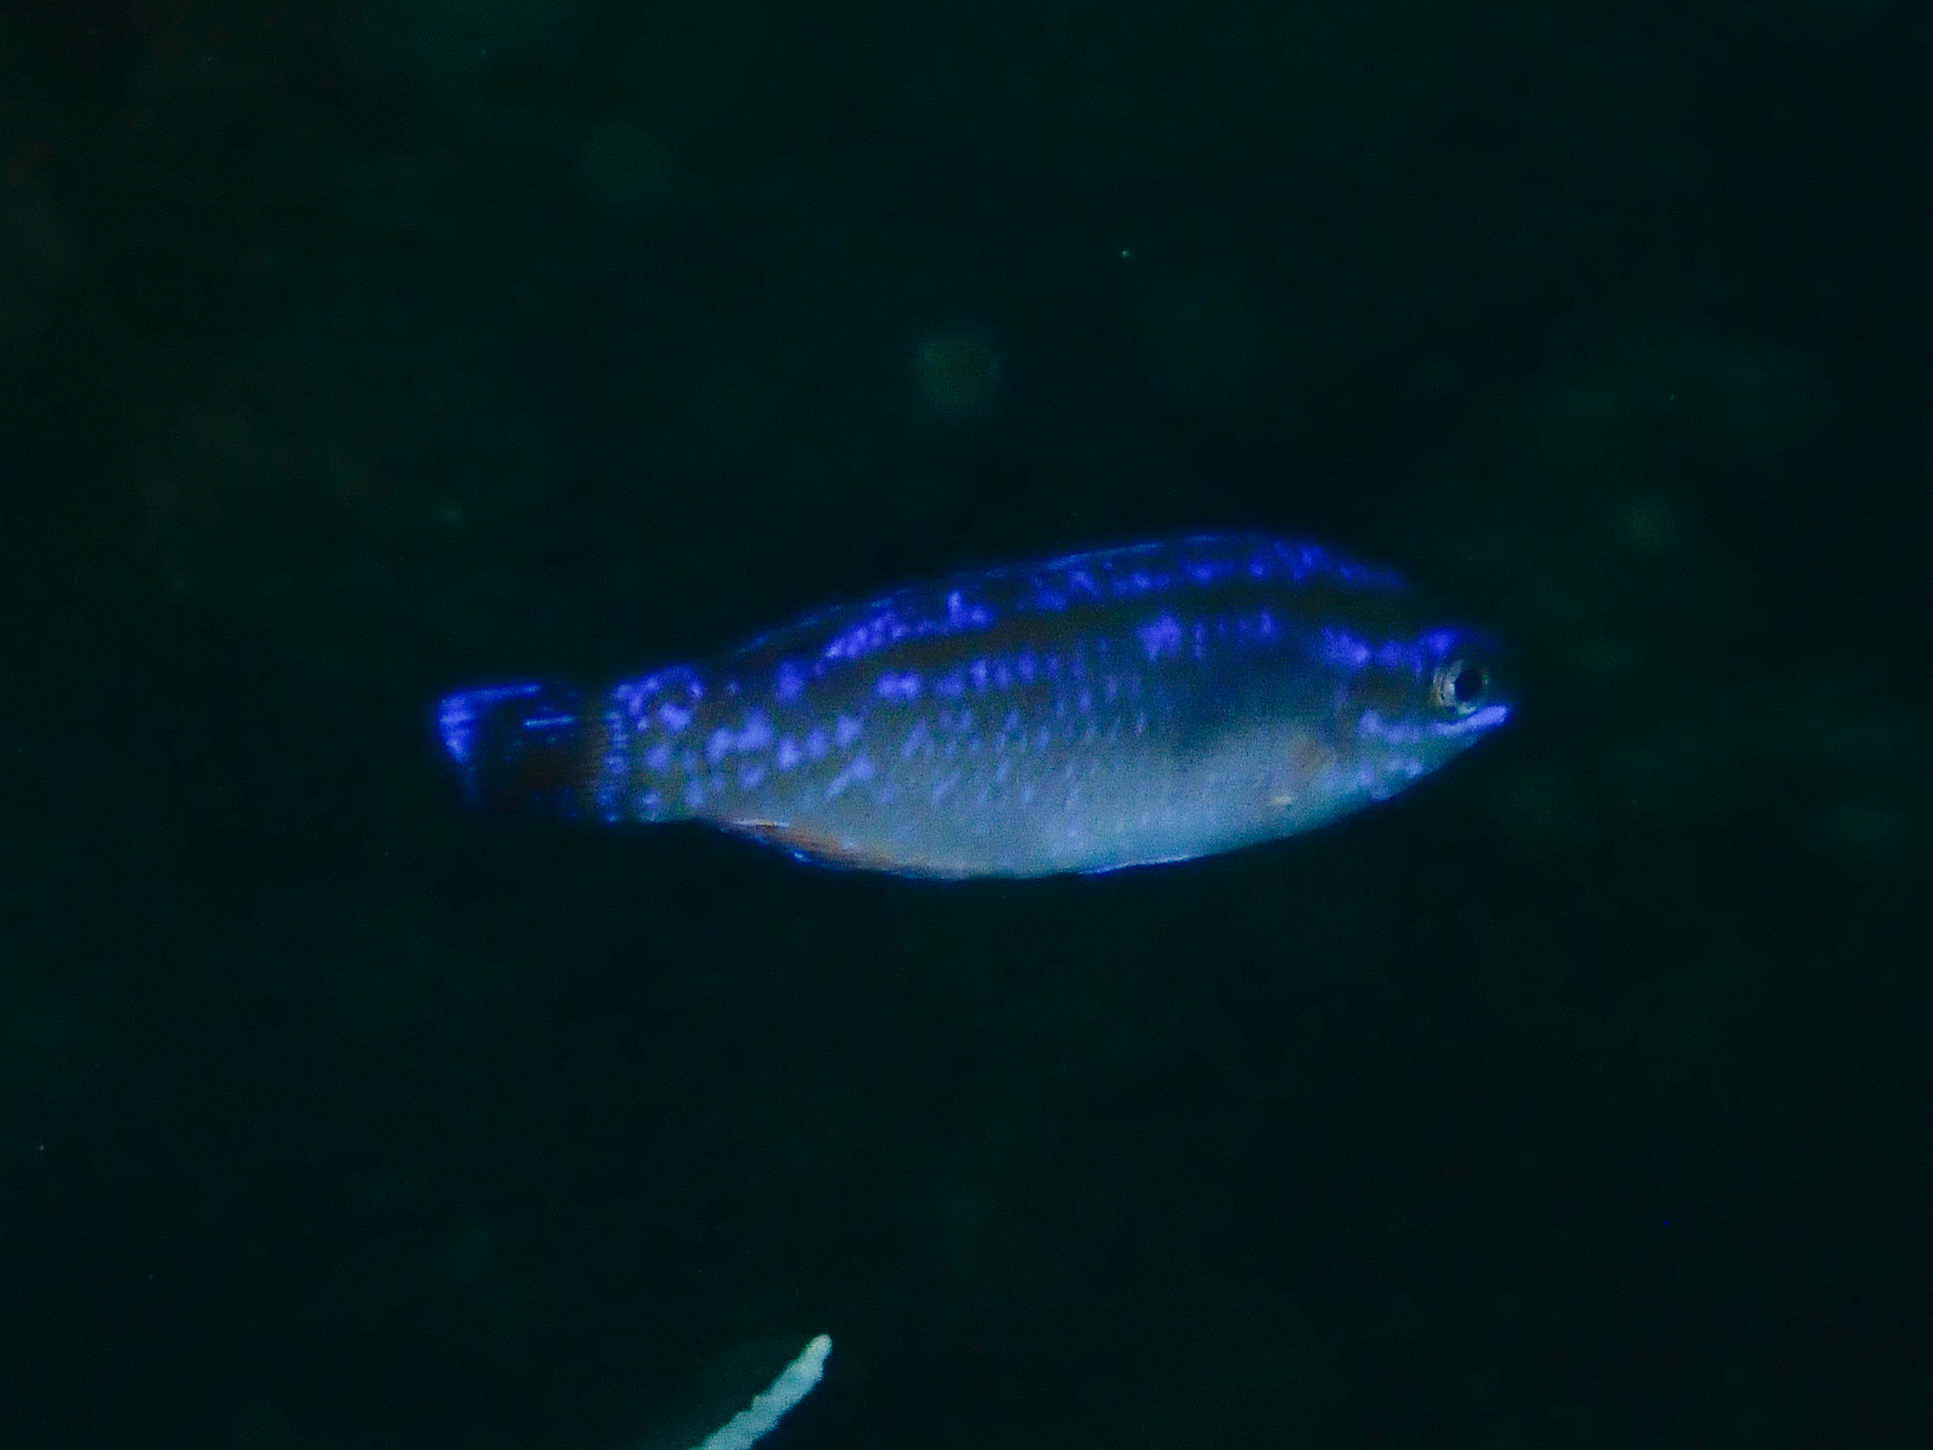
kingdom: Animalia
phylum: Chordata
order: Perciformes
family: Labridae
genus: Centrolabrus
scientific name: Centrolabrus melanocercus
